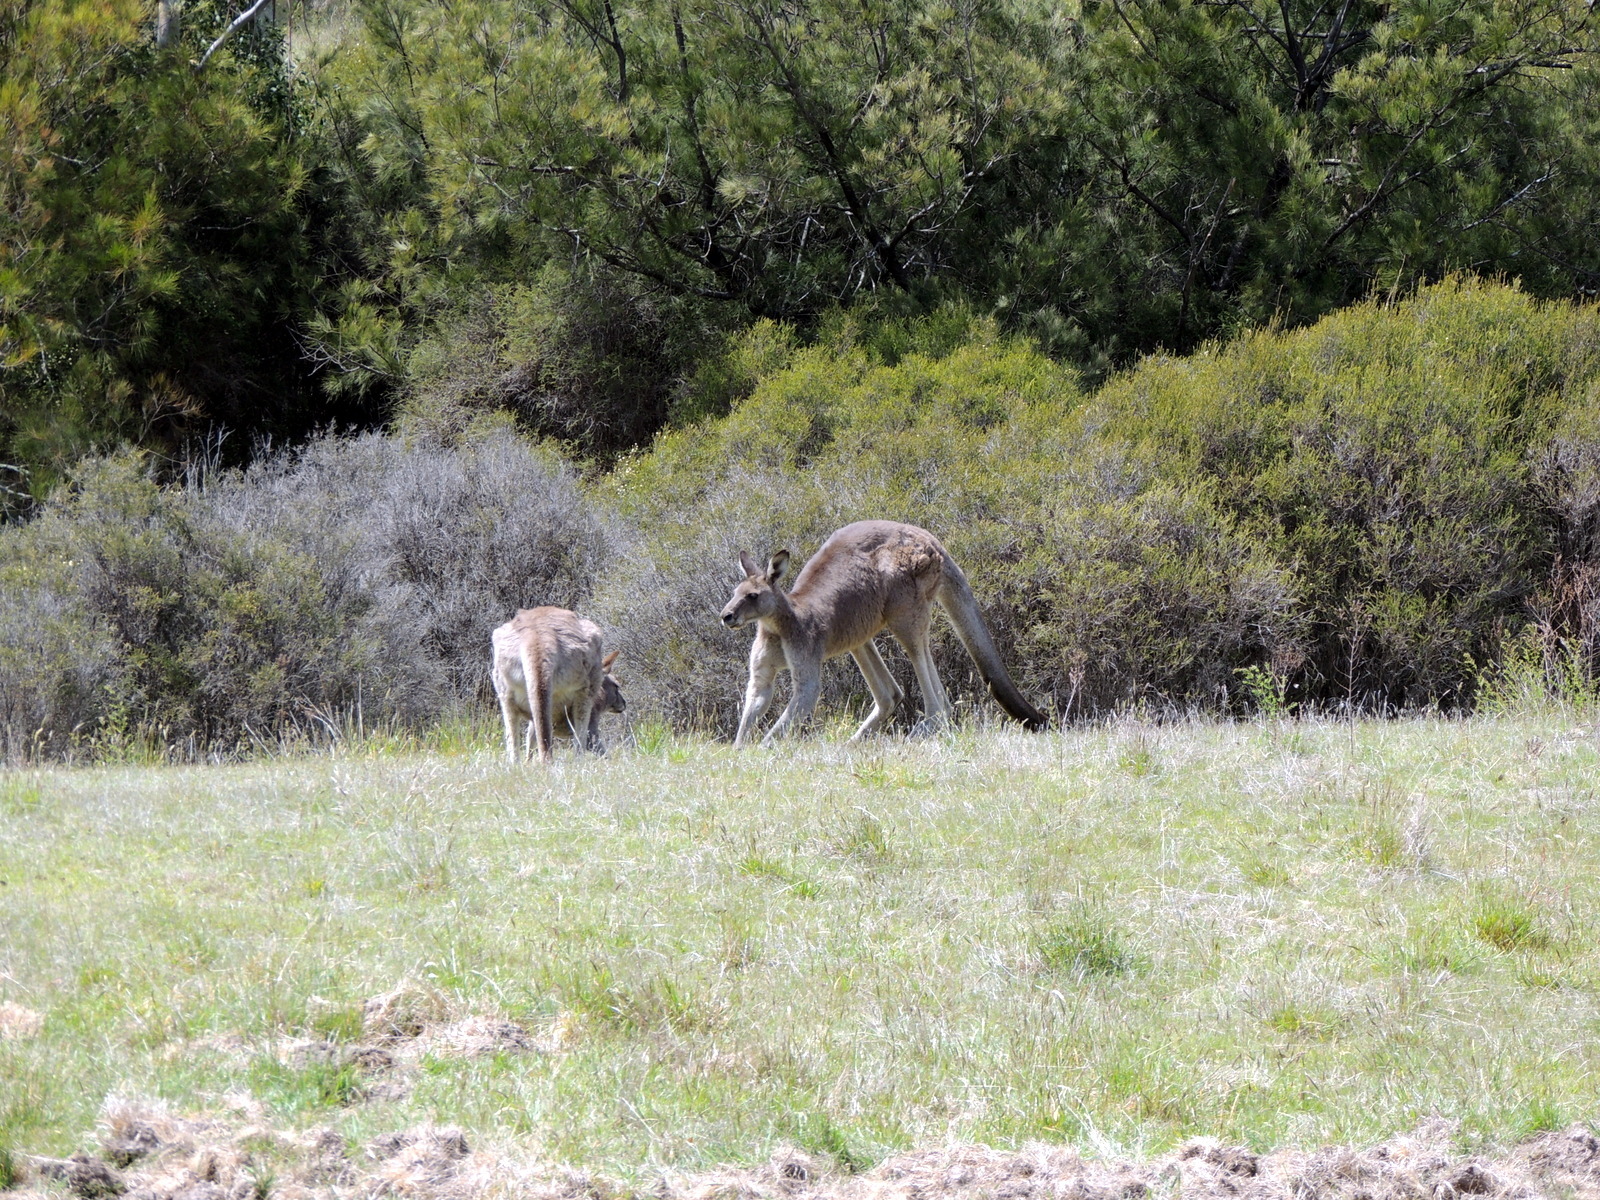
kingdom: Animalia
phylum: Chordata
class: Mammalia
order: Diprotodontia
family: Macropodidae
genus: Macropus
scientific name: Macropus giganteus
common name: Eastern grey kangaroo
